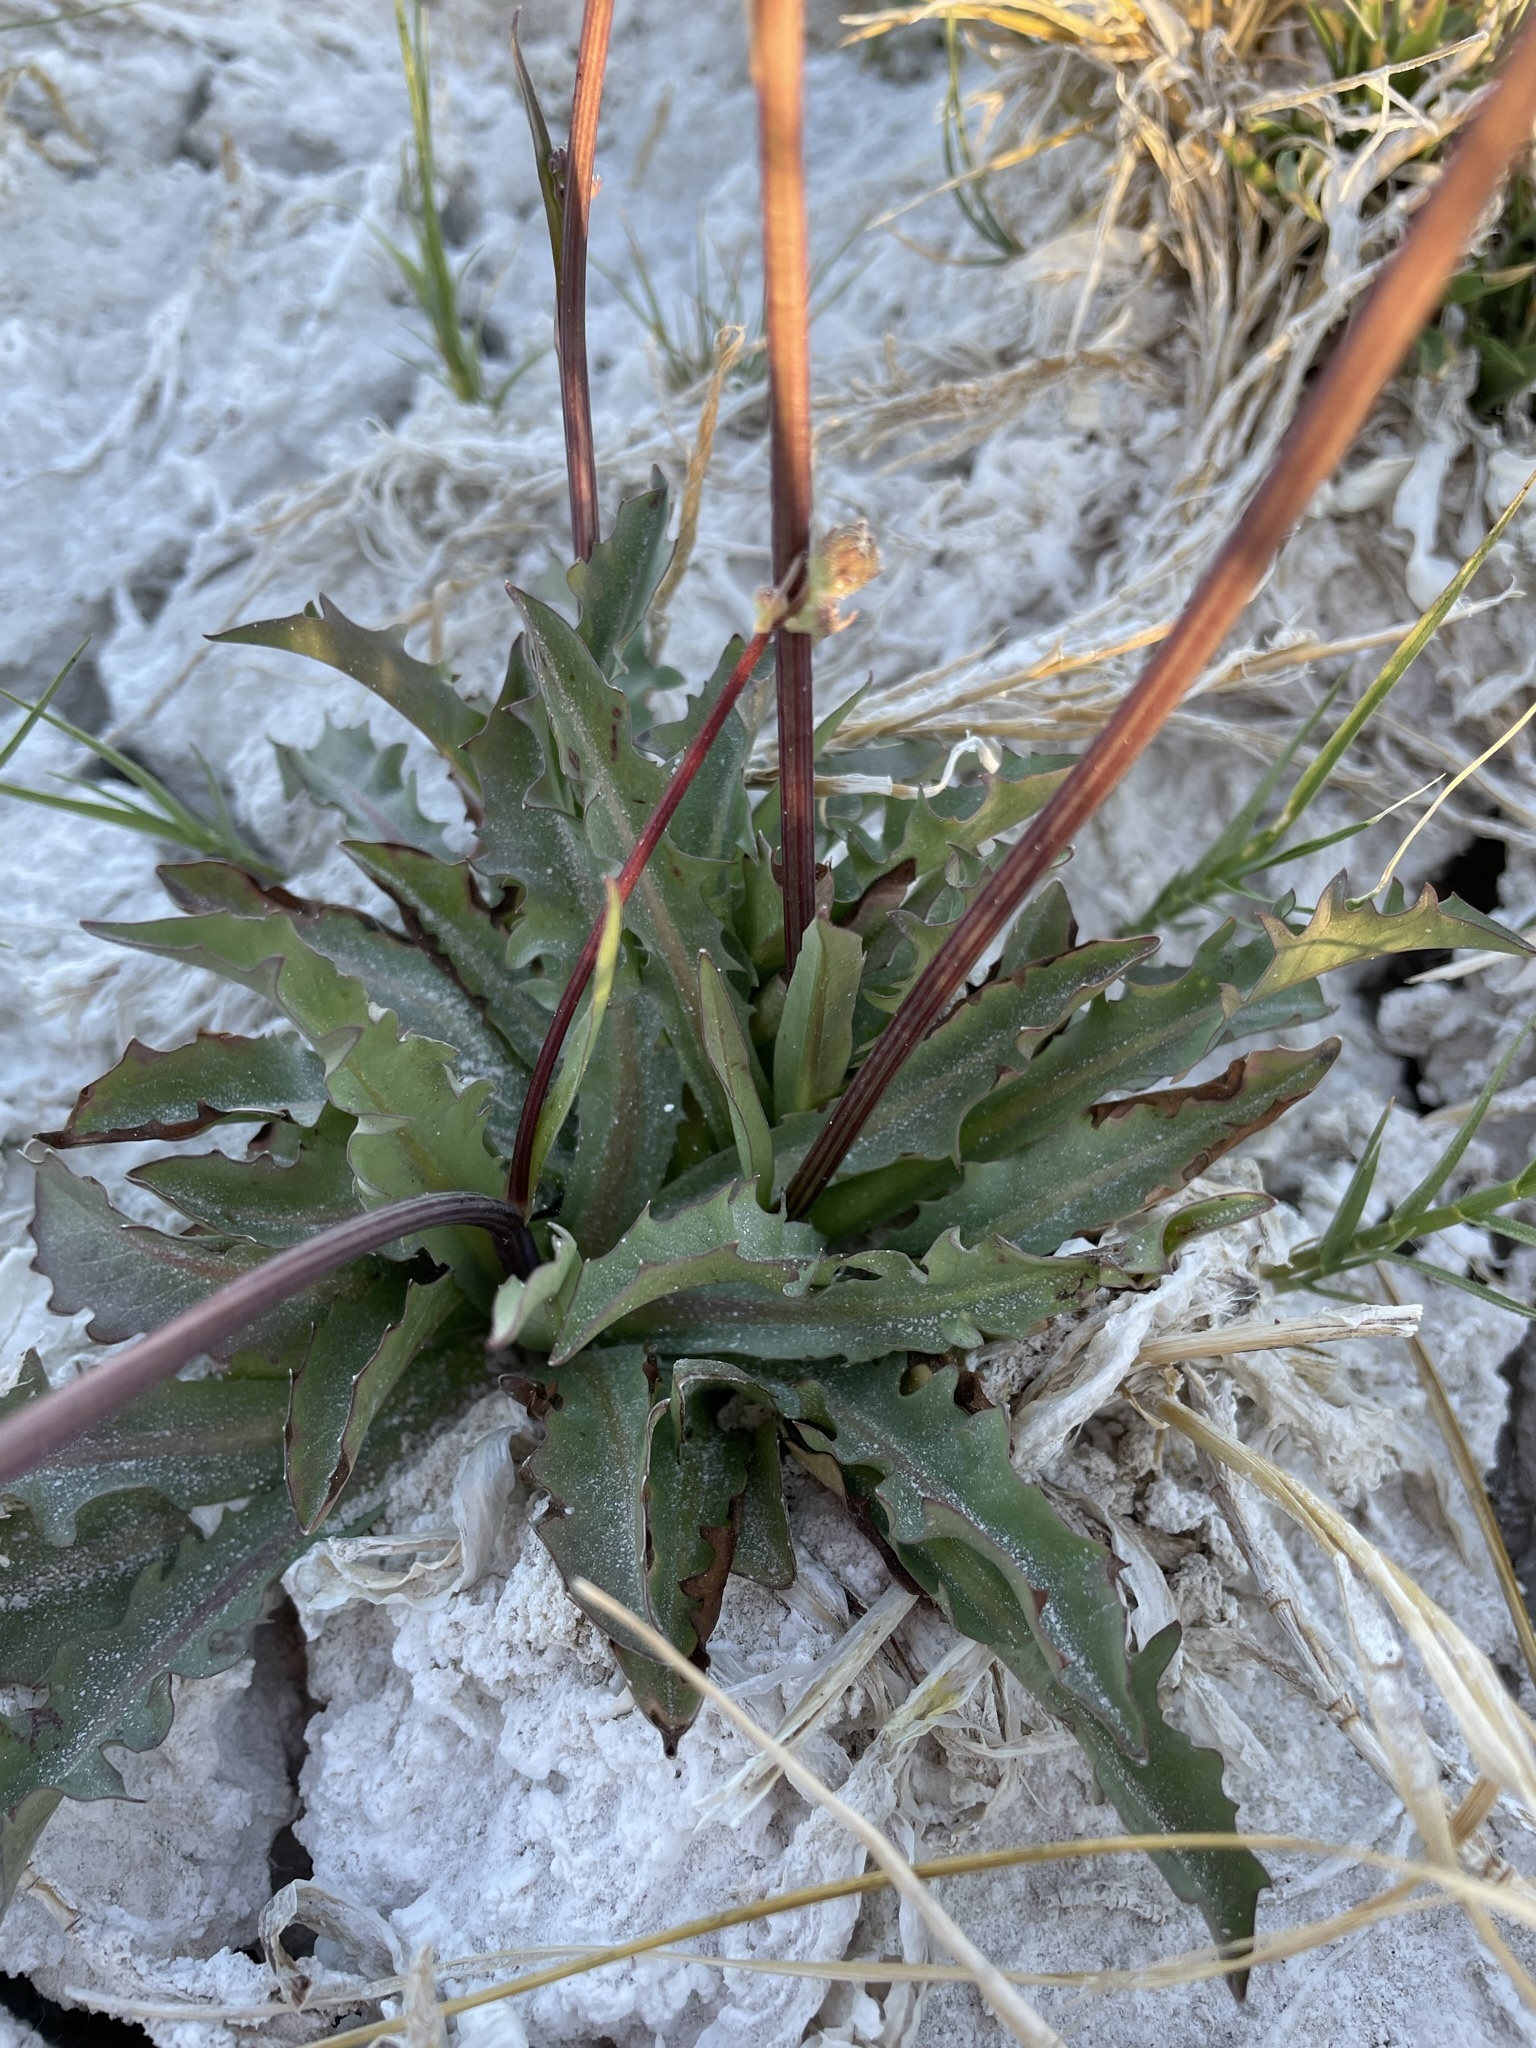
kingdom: Plantae
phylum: Tracheophyta
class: Magnoliopsida
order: Asterales
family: Asteraceae
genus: Crepis
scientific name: Crepis runcinata
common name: Dandelion hawksbeard
